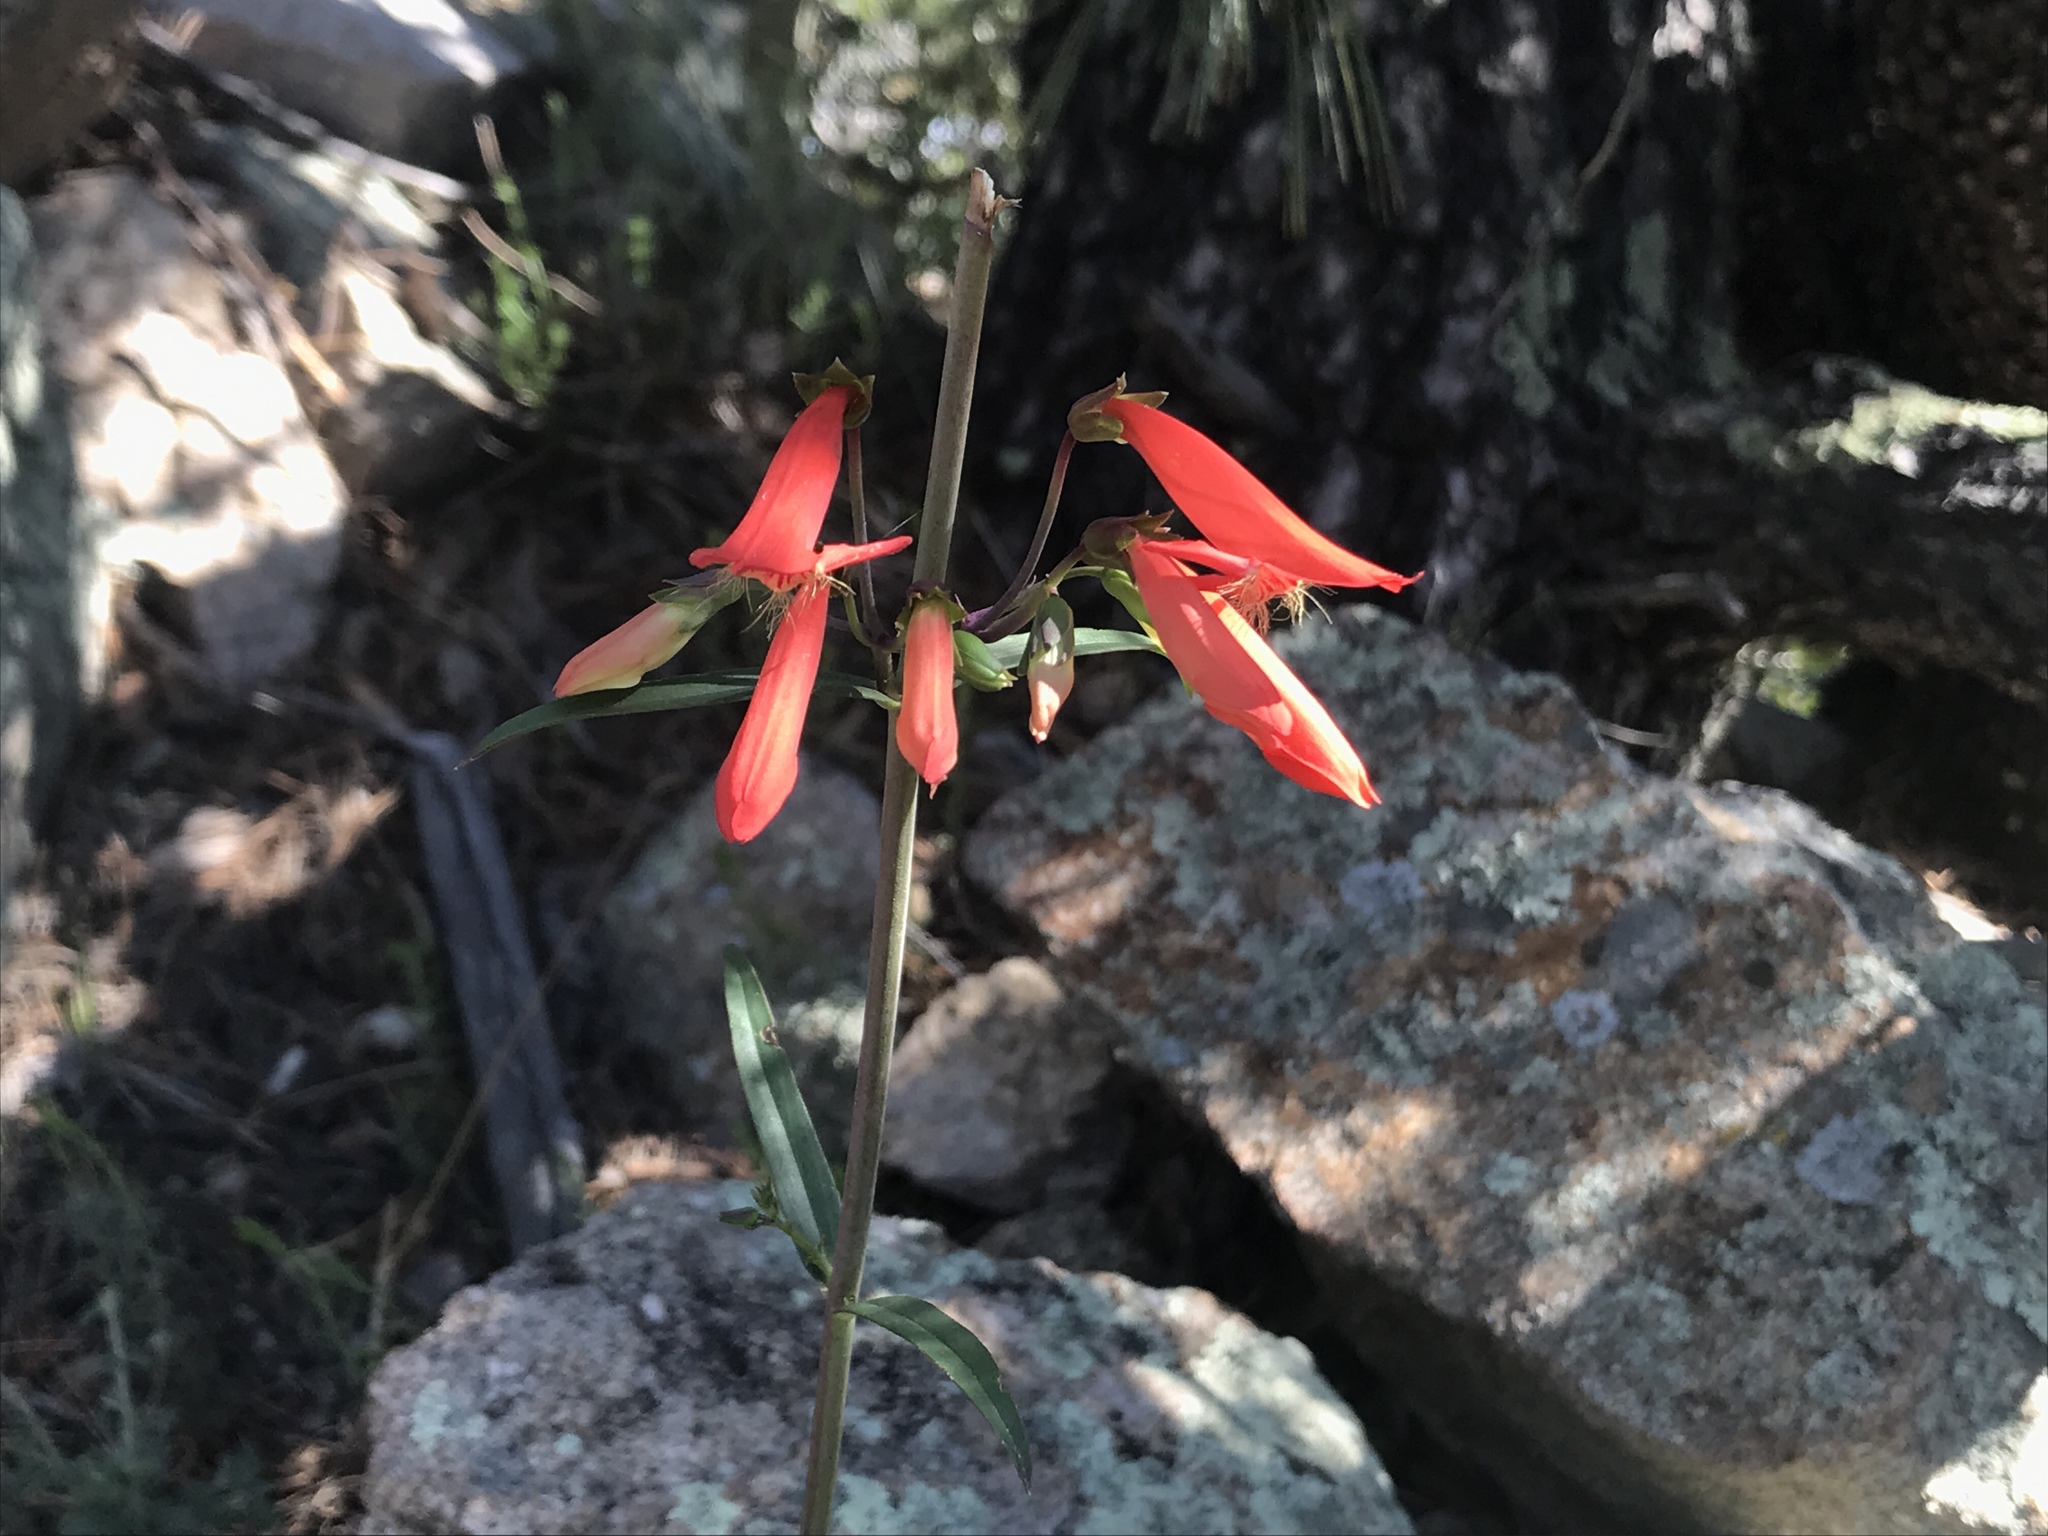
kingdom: Plantae
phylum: Tracheophyta
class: Magnoliopsida
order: Lamiales
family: Plantaginaceae
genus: Penstemon
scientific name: Penstemon barbatus
